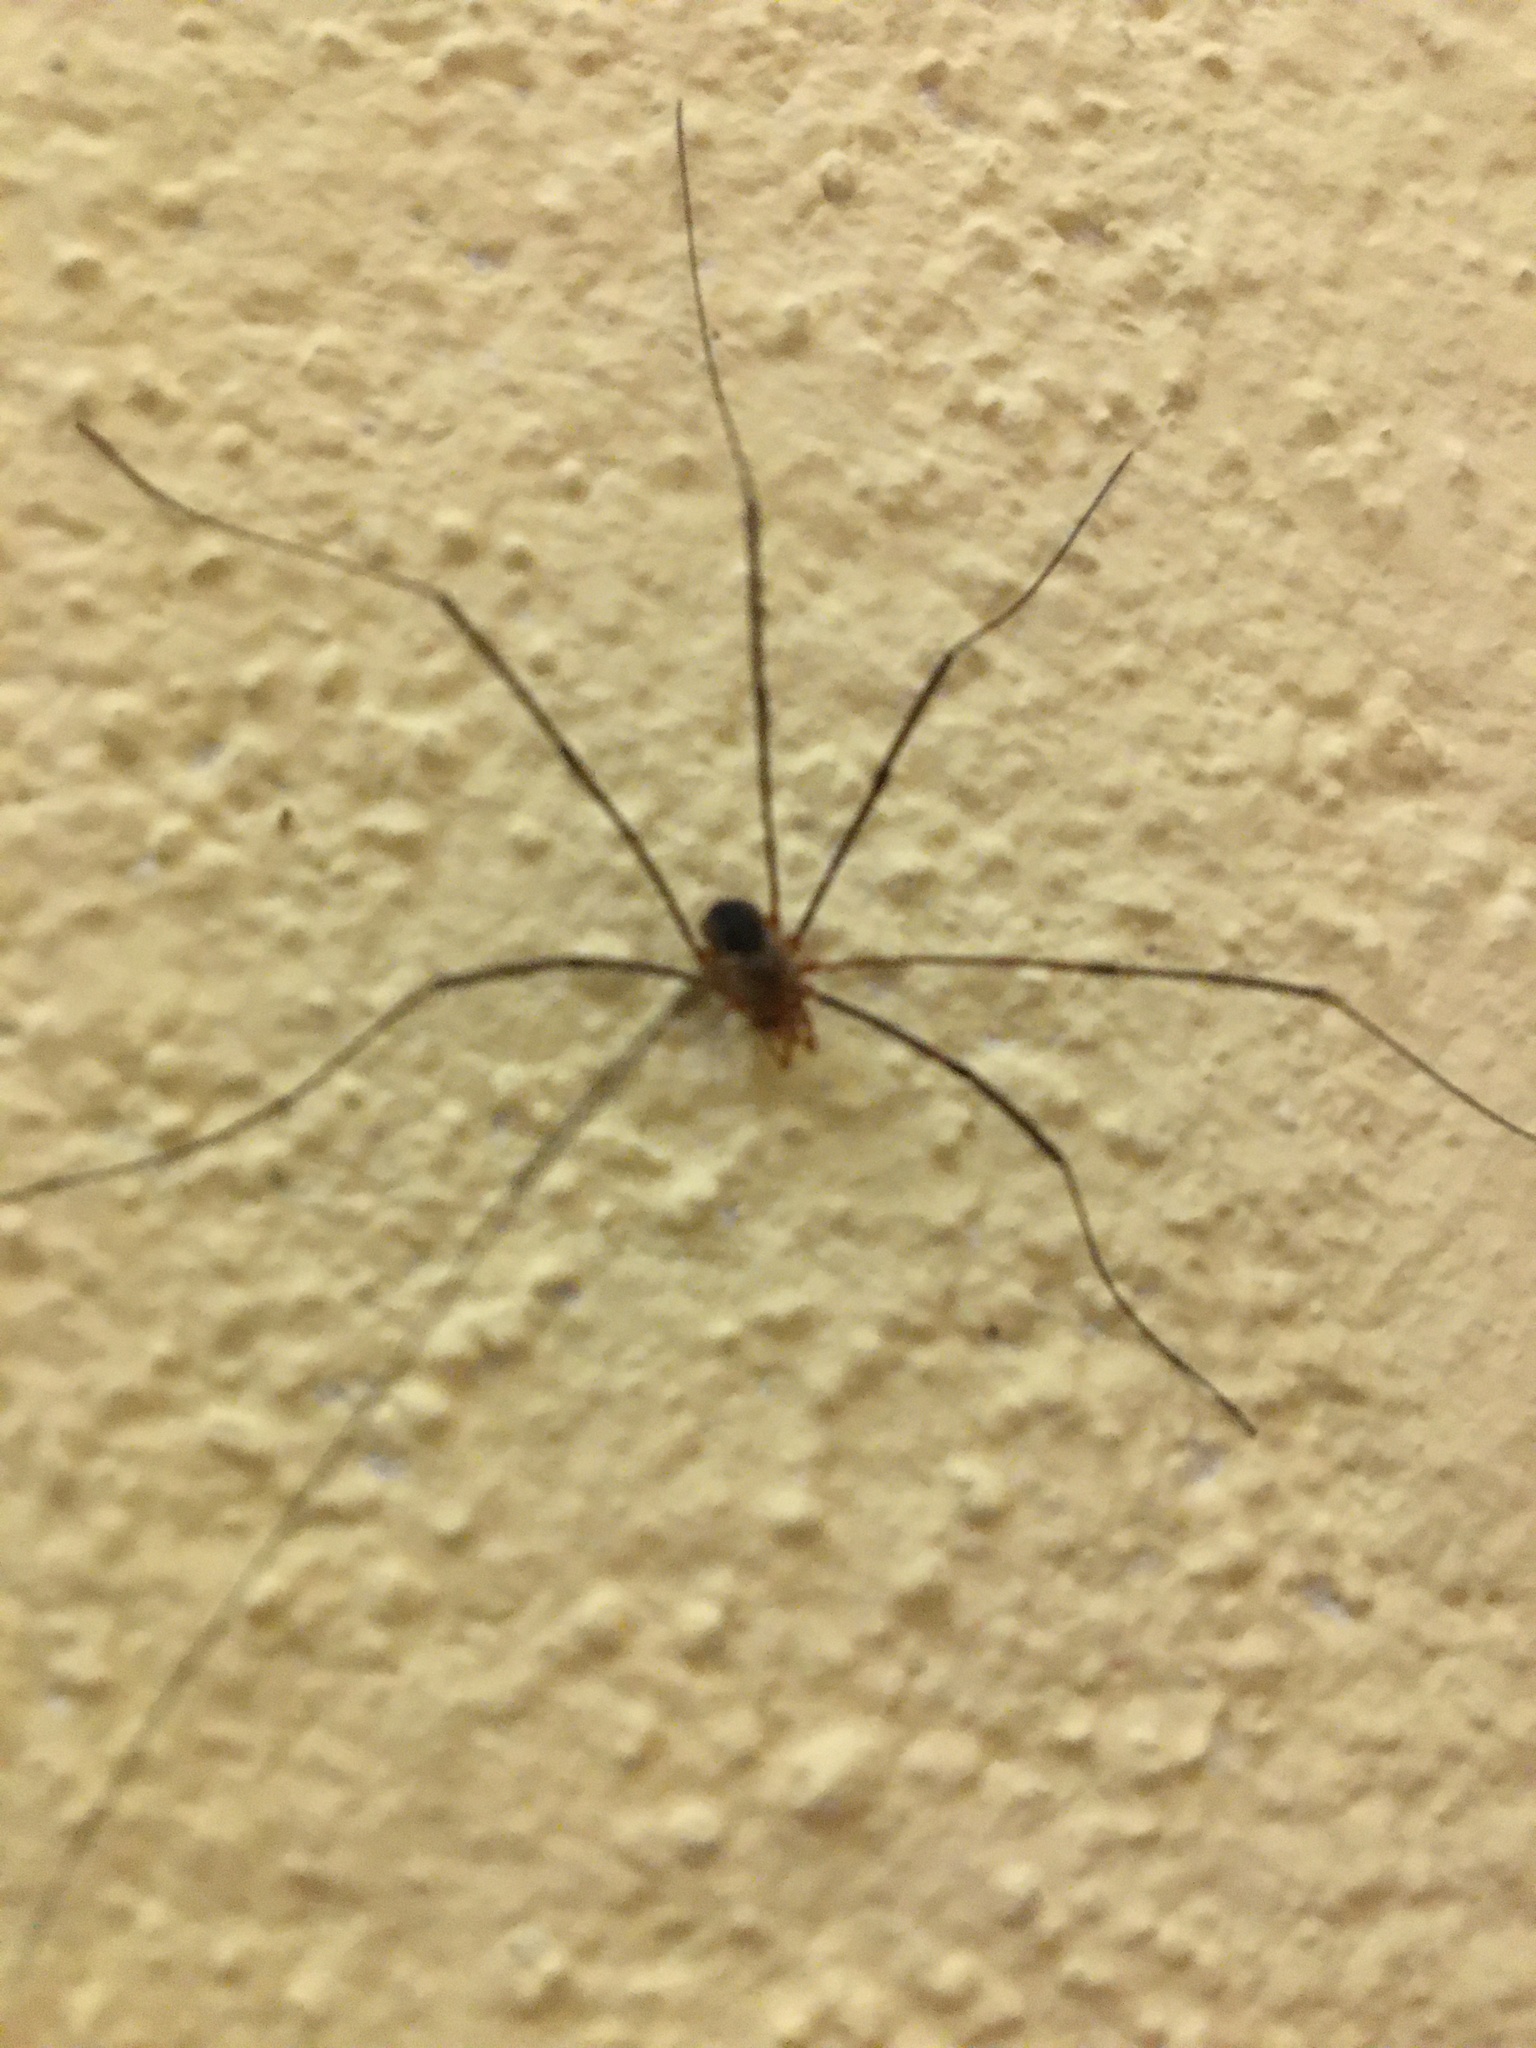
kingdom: Animalia
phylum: Arthropoda
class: Arachnida
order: Opiliones
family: Phalangiidae
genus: Phalangium
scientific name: Phalangium opilio
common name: Daddy longleg
